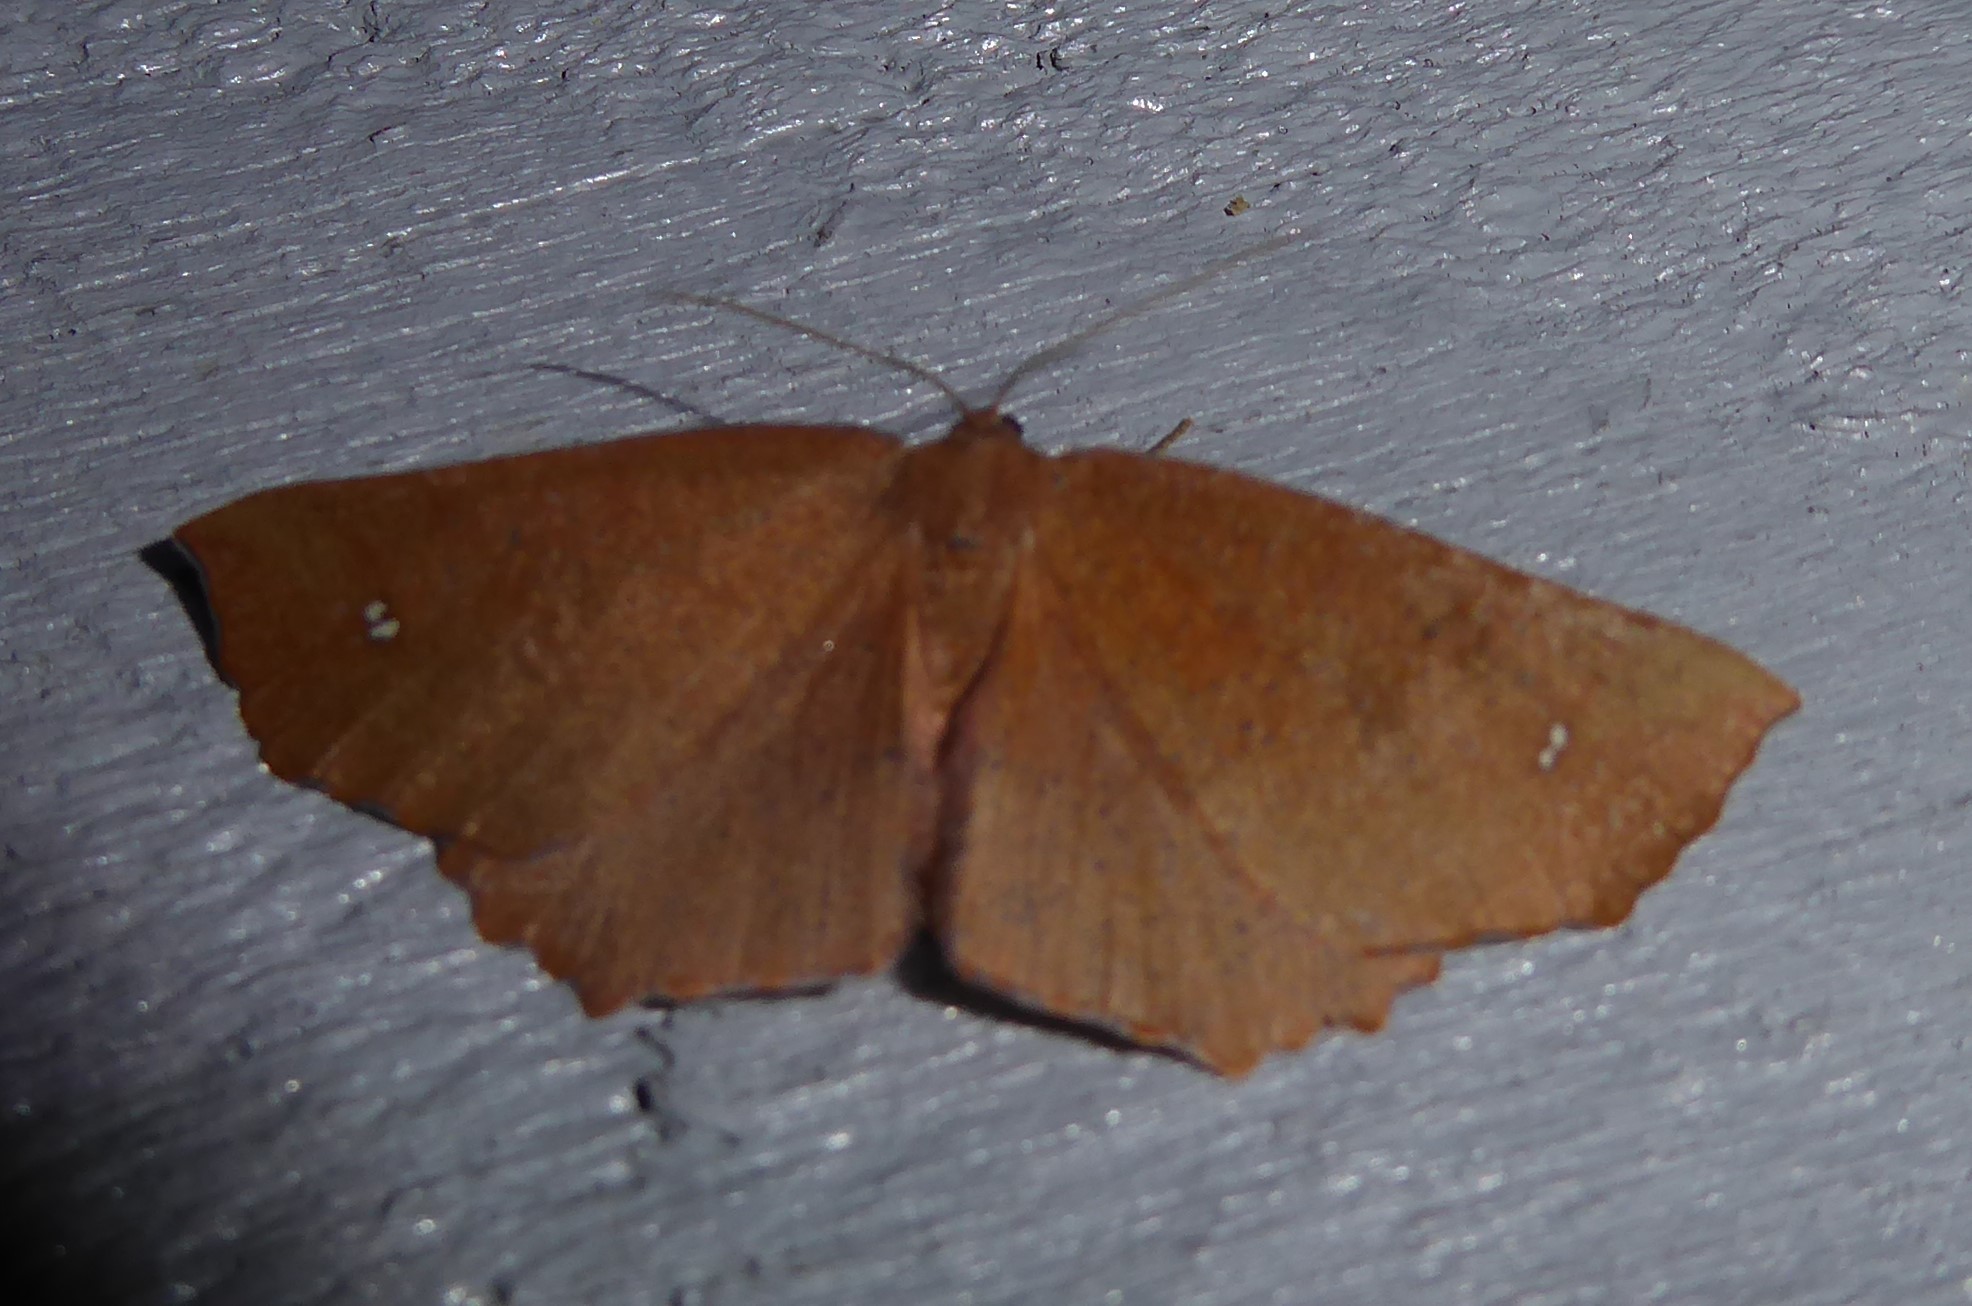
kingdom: Animalia
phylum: Arthropoda
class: Insecta
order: Lepidoptera
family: Geometridae
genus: Xyridacma
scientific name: Xyridacma ustaria
